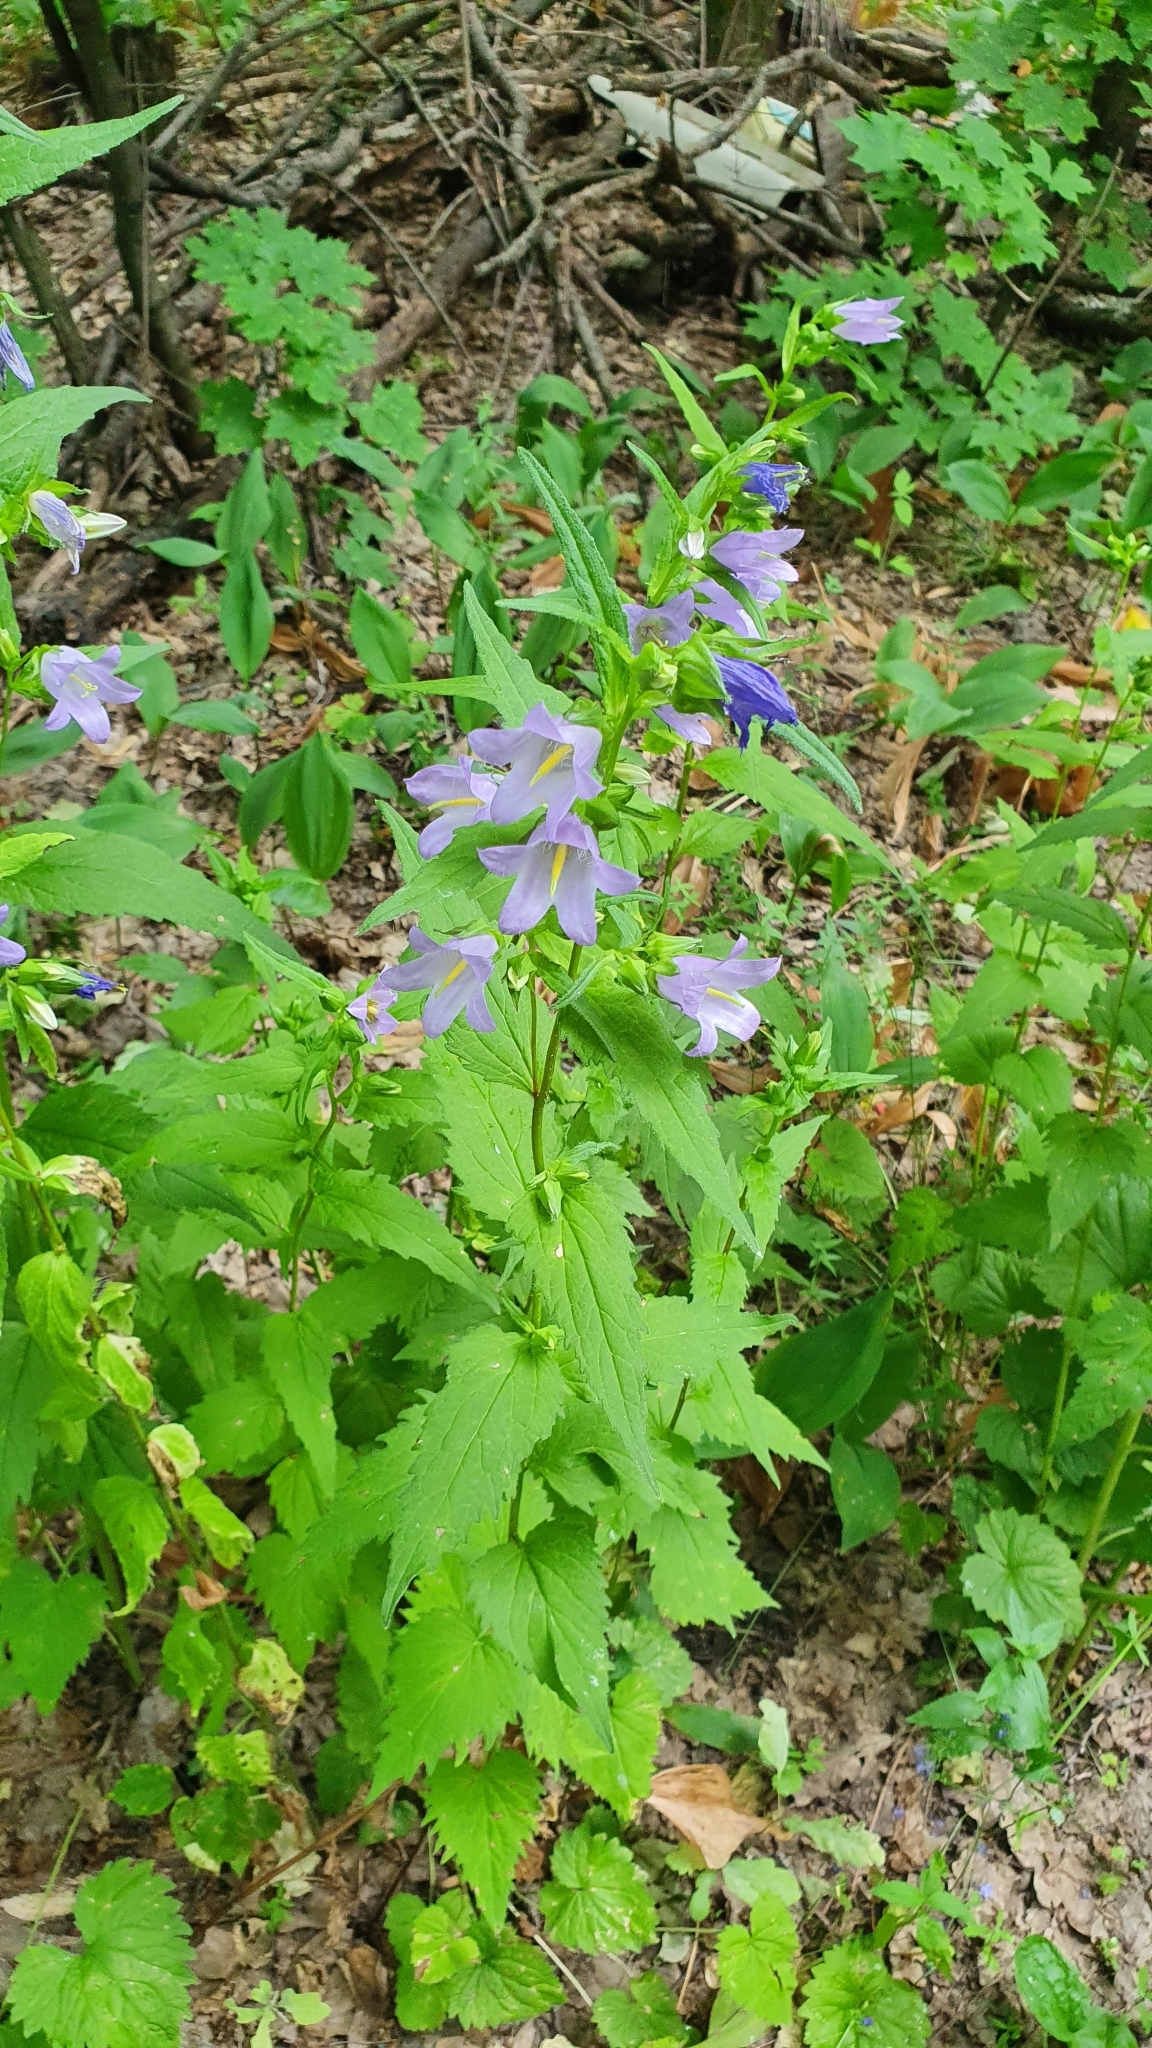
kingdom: Plantae
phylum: Tracheophyta
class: Magnoliopsida
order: Asterales
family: Campanulaceae
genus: Campanula
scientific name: Campanula trachelium
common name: Nettle-leaved bellflower
